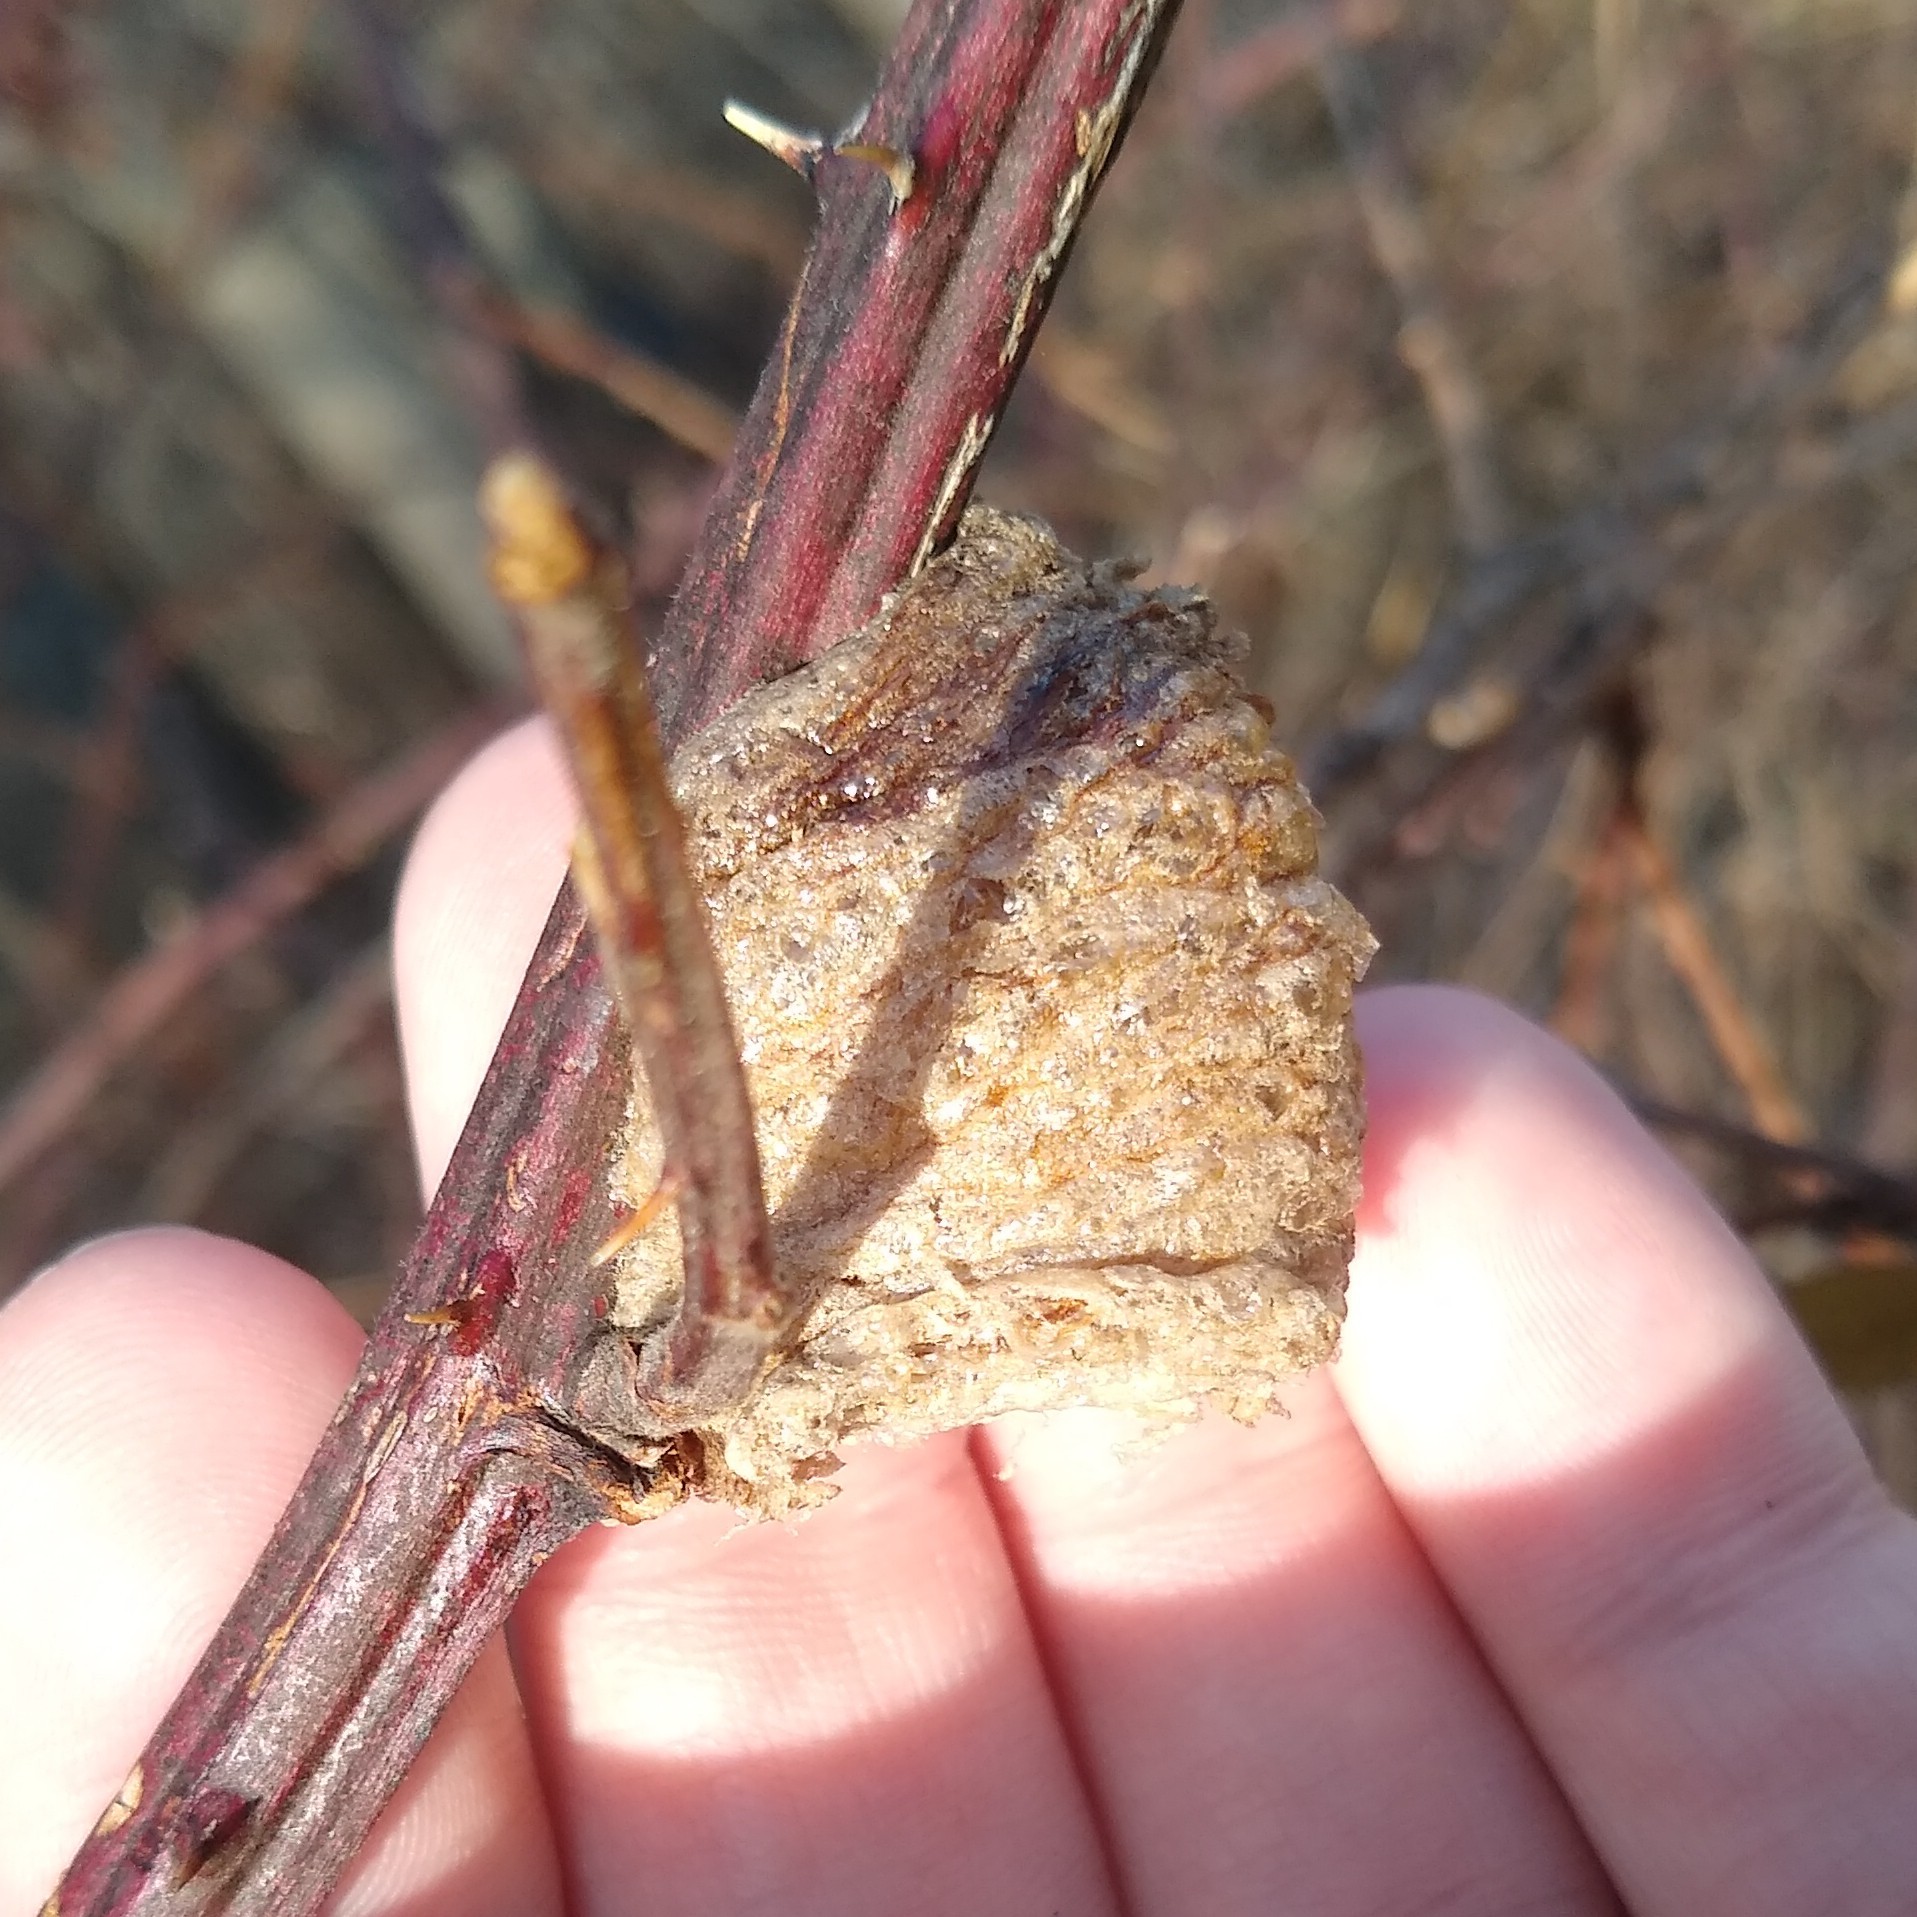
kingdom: Animalia
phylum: Arthropoda
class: Insecta
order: Mantodea
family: Mantidae
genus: Tenodera
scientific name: Tenodera sinensis
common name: Chinese mantis
